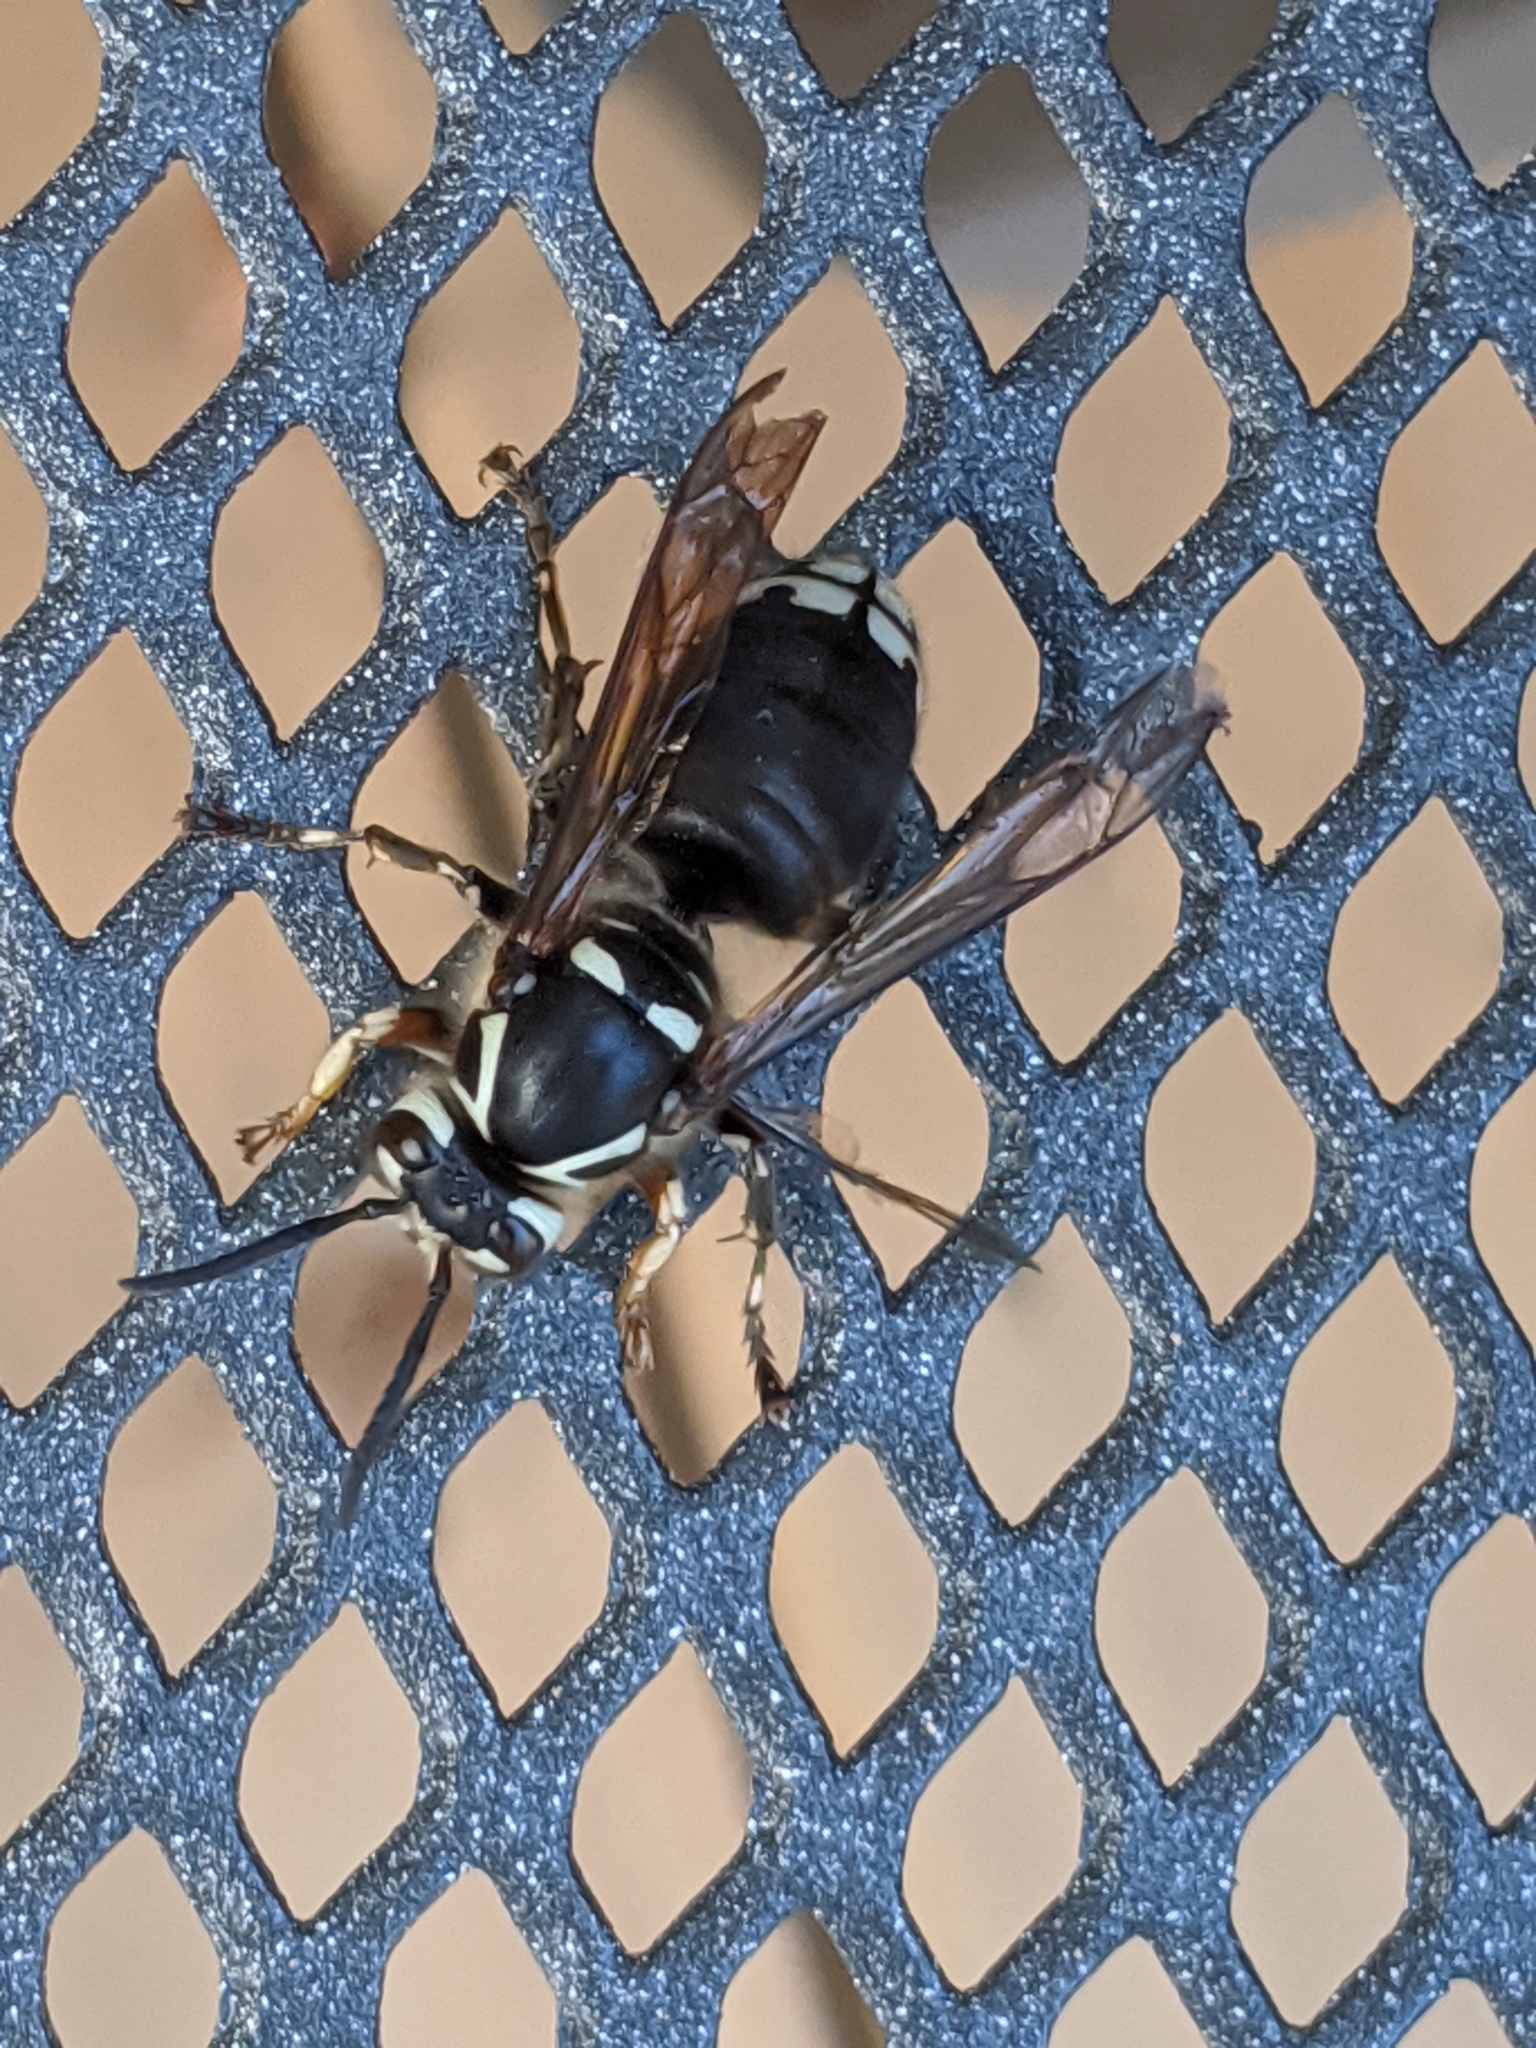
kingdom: Animalia
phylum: Arthropoda
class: Insecta
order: Hymenoptera
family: Vespidae
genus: Dolichovespula
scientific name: Dolichovespula maculata
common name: Bald-faced hornet
